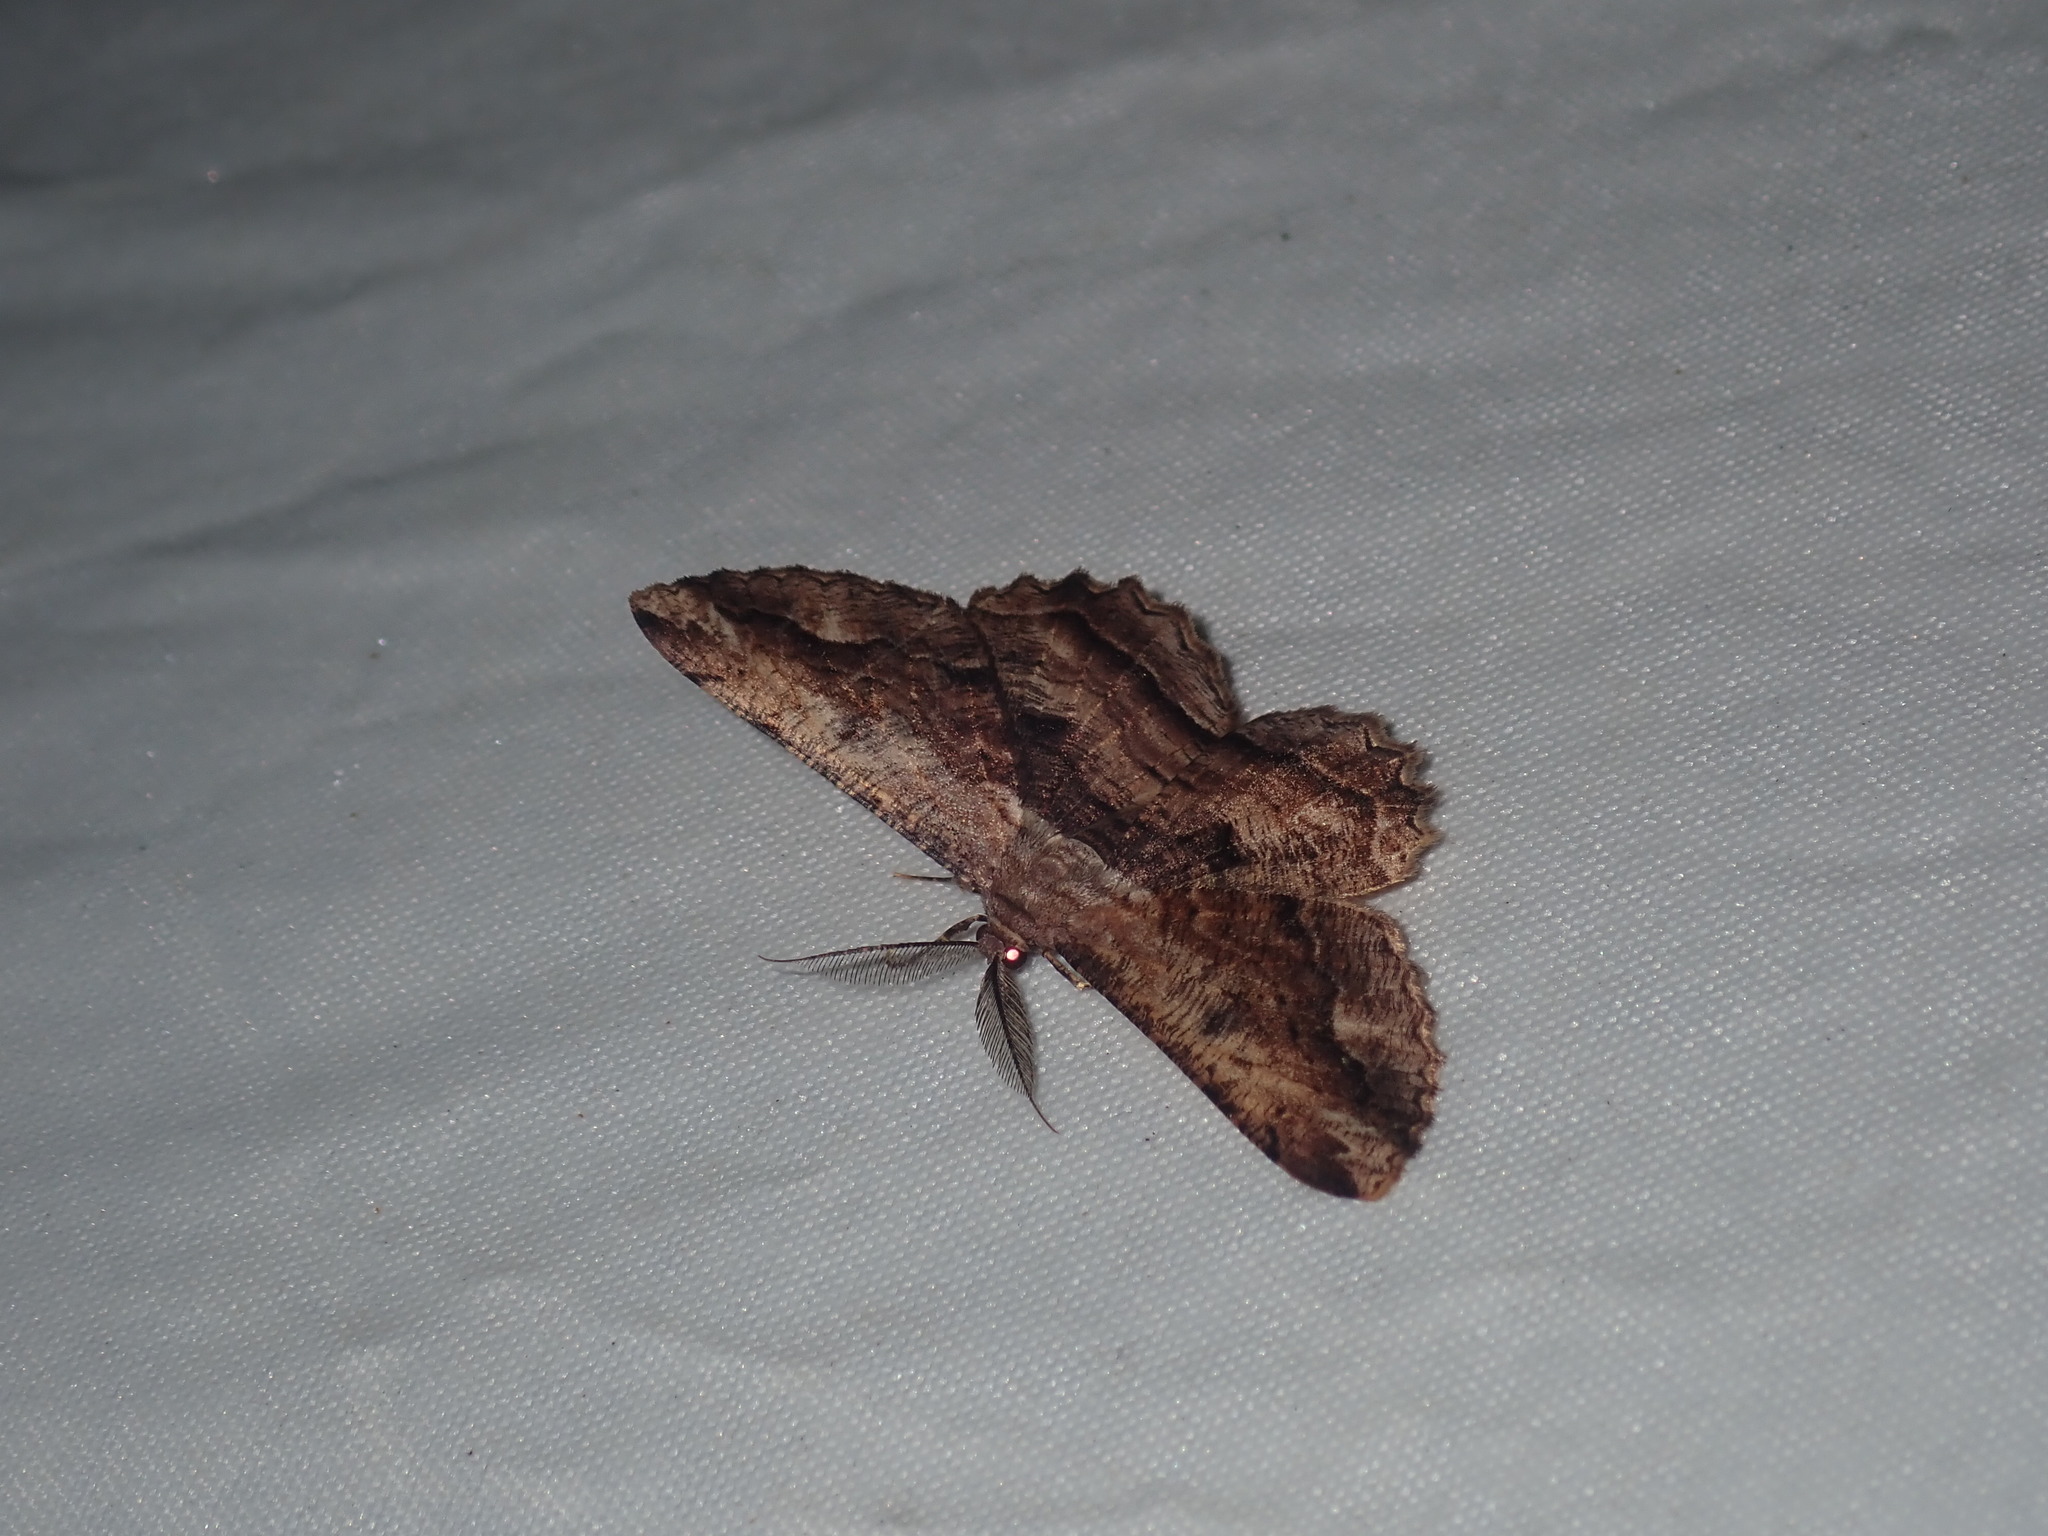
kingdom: Animalia
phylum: Arthropoda
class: Insecta
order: Lepidoptera
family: Geometridae
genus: Scioglyptis
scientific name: Scioglyptis lyciaria
